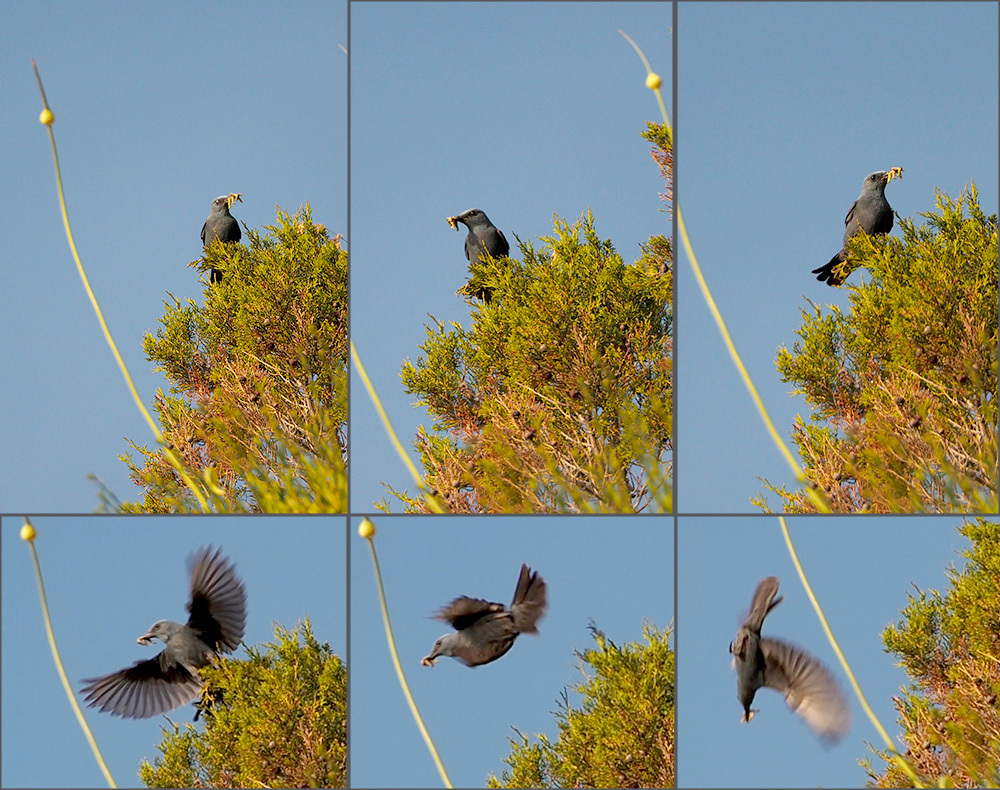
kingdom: Animalia
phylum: Chordata
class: Aves
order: Passeriformes
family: Muscicapidae
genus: Monticola
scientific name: Monticola solitarius
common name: Blue rock thrush
